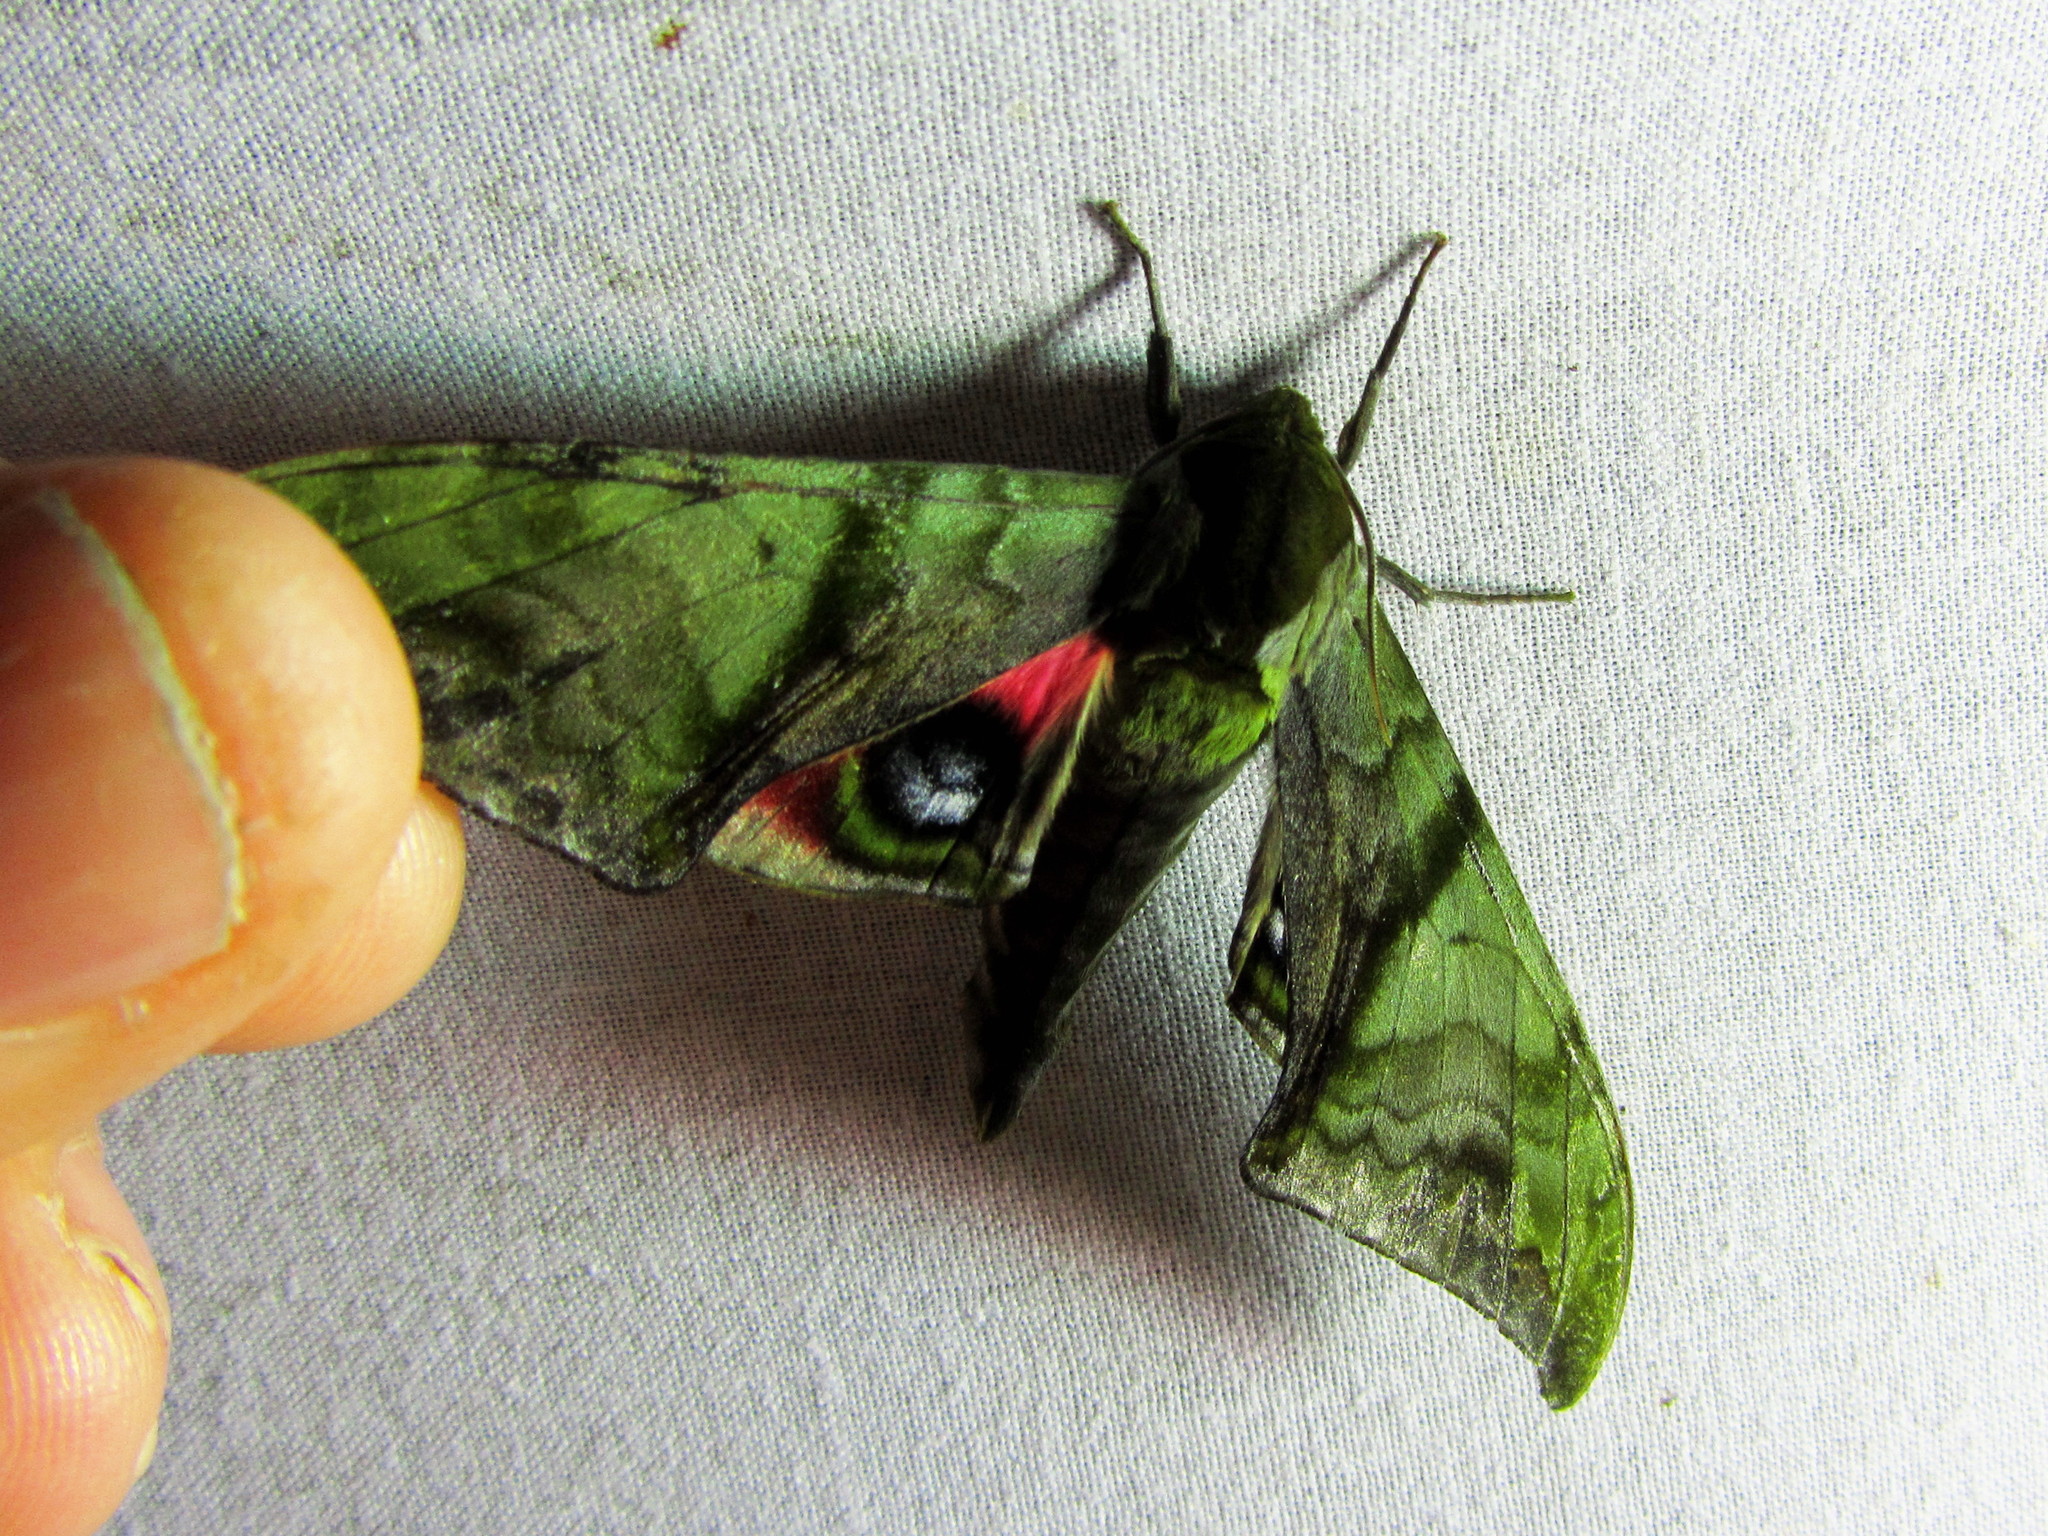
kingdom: Animalia
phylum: Arthropoda
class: Insecta
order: Lepidoptera
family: Sphingidae
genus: Callambulyx
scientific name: Callambulyx junonia
